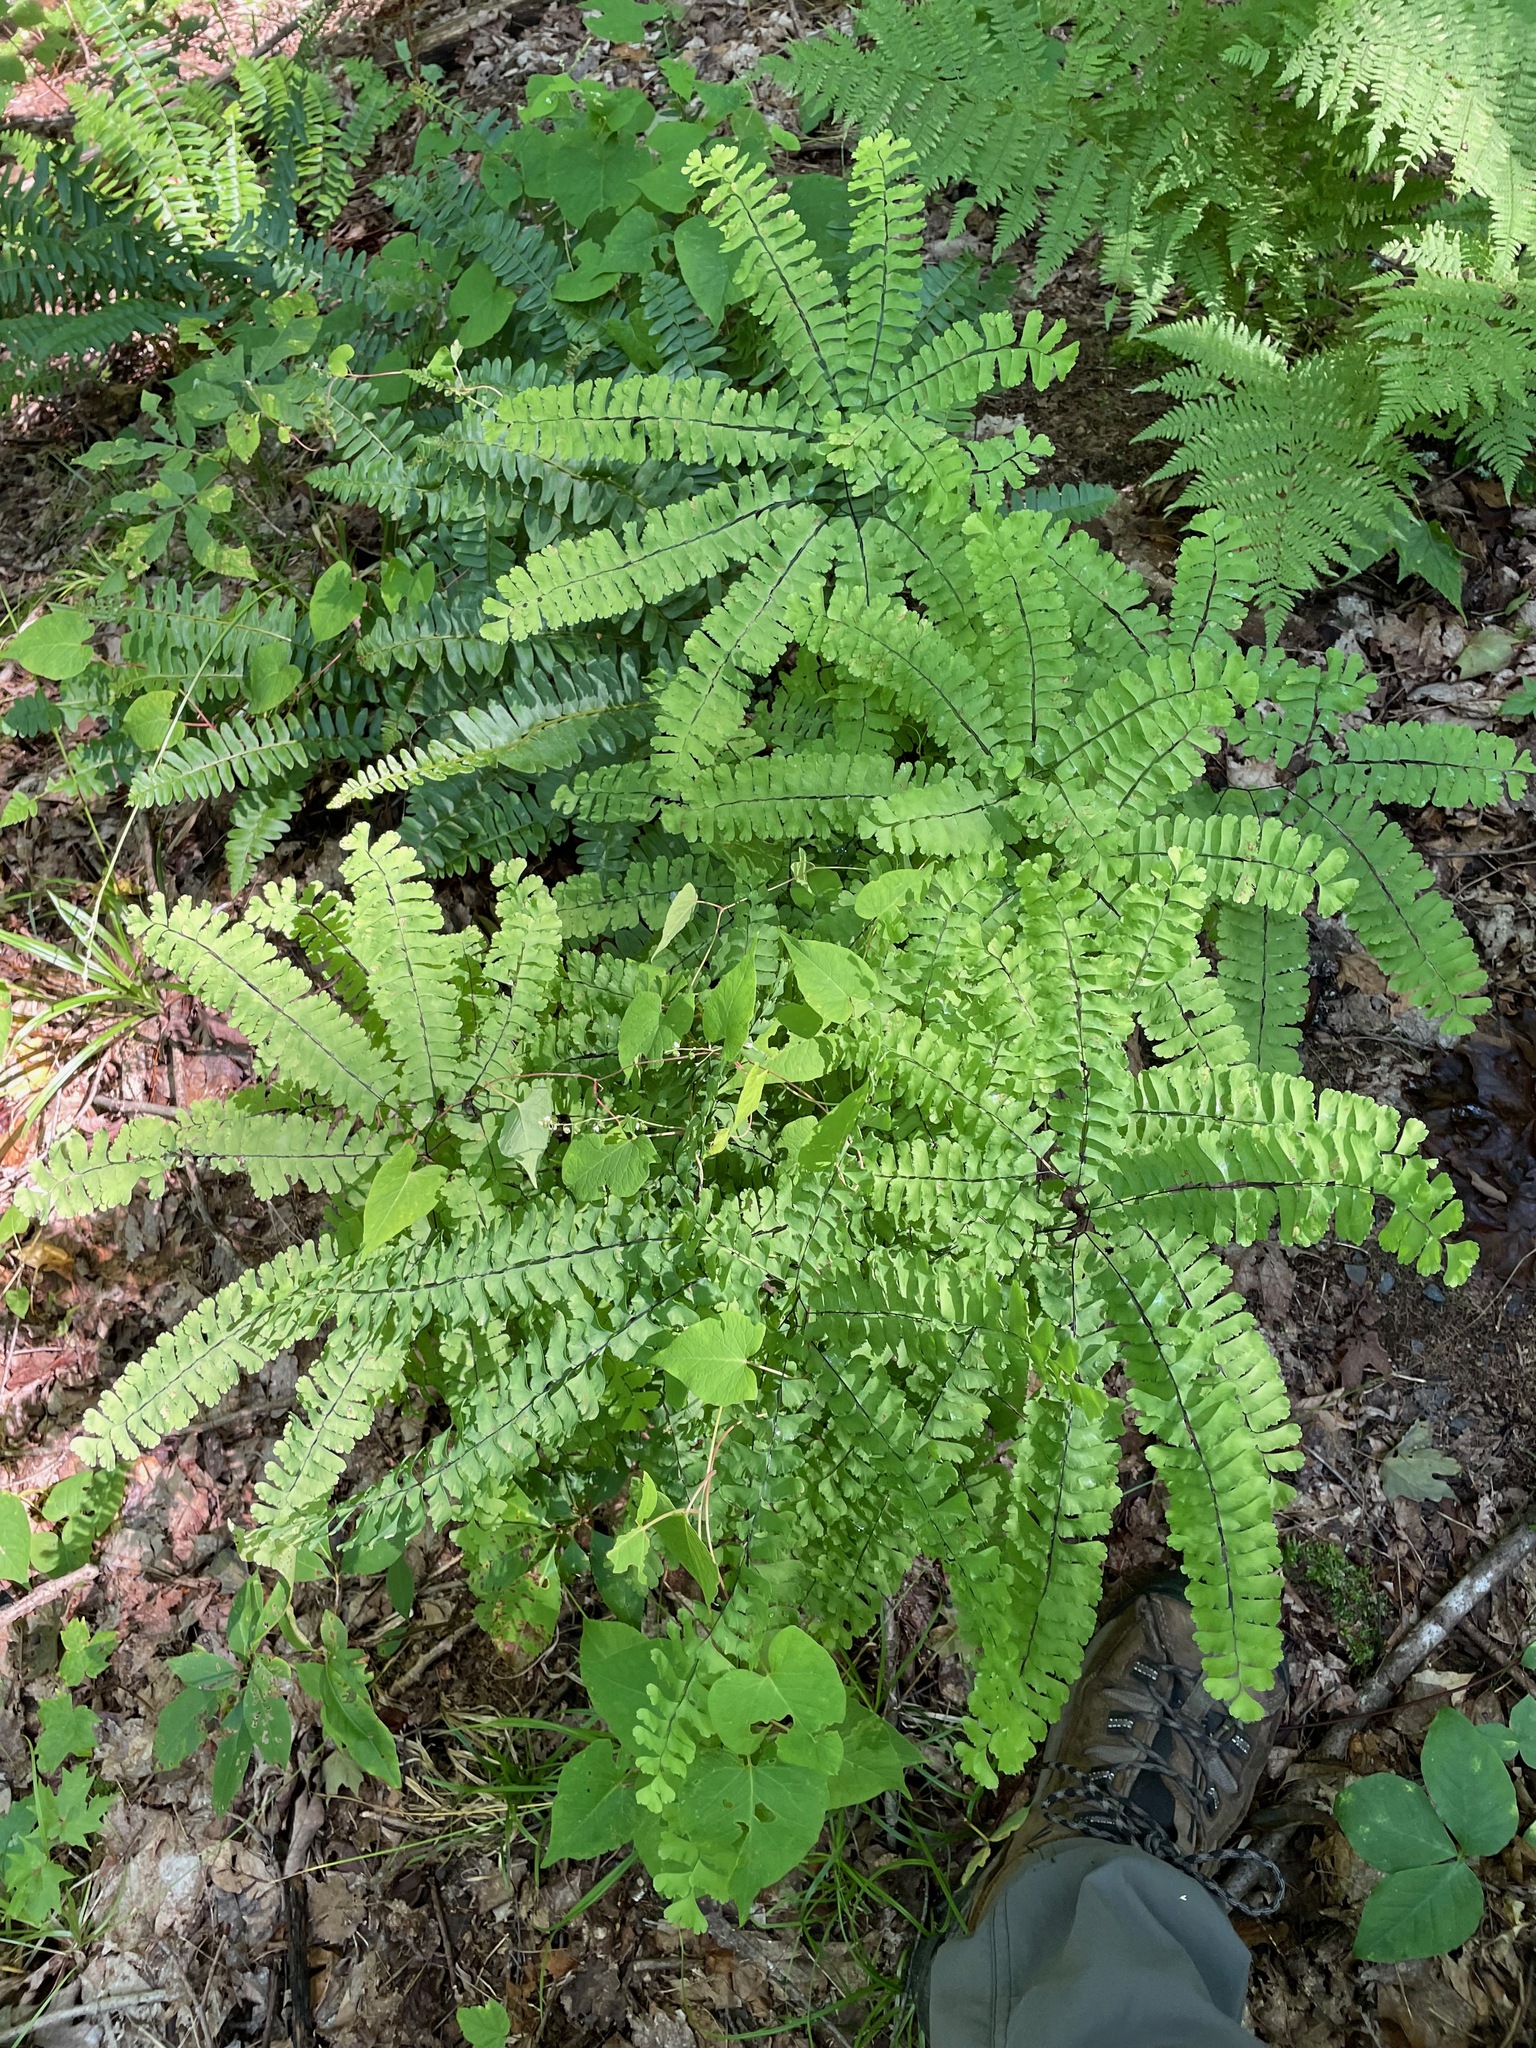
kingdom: Plantae
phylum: Tracheophyta
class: Polypodiopsida
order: Polypodiales
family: Pteridaceae
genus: Adiantum
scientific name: Adiantum pedatum
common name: Five-finger fern
